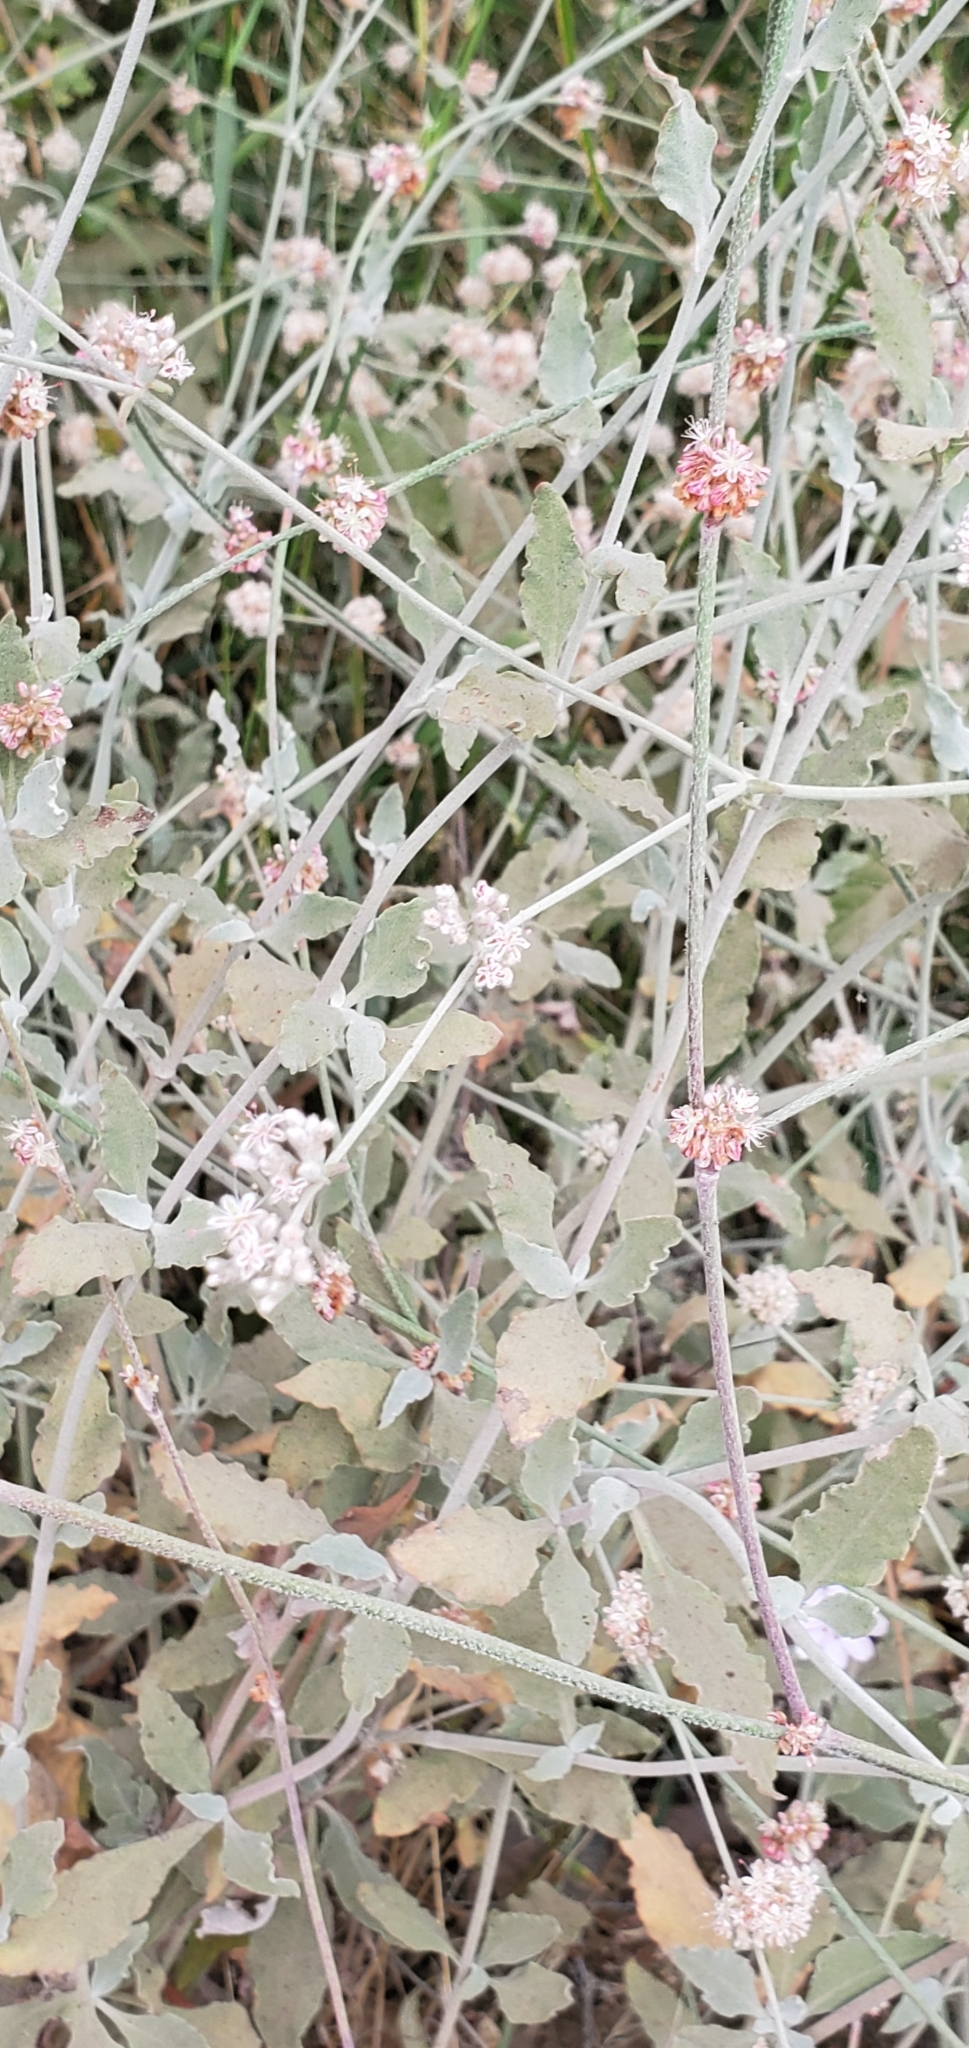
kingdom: Plantae
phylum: Tracheophyta
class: Magnoliopsida
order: Caryophyllales
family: Polygonaceae
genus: Eriogonum
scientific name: Eriogonum cinereum
